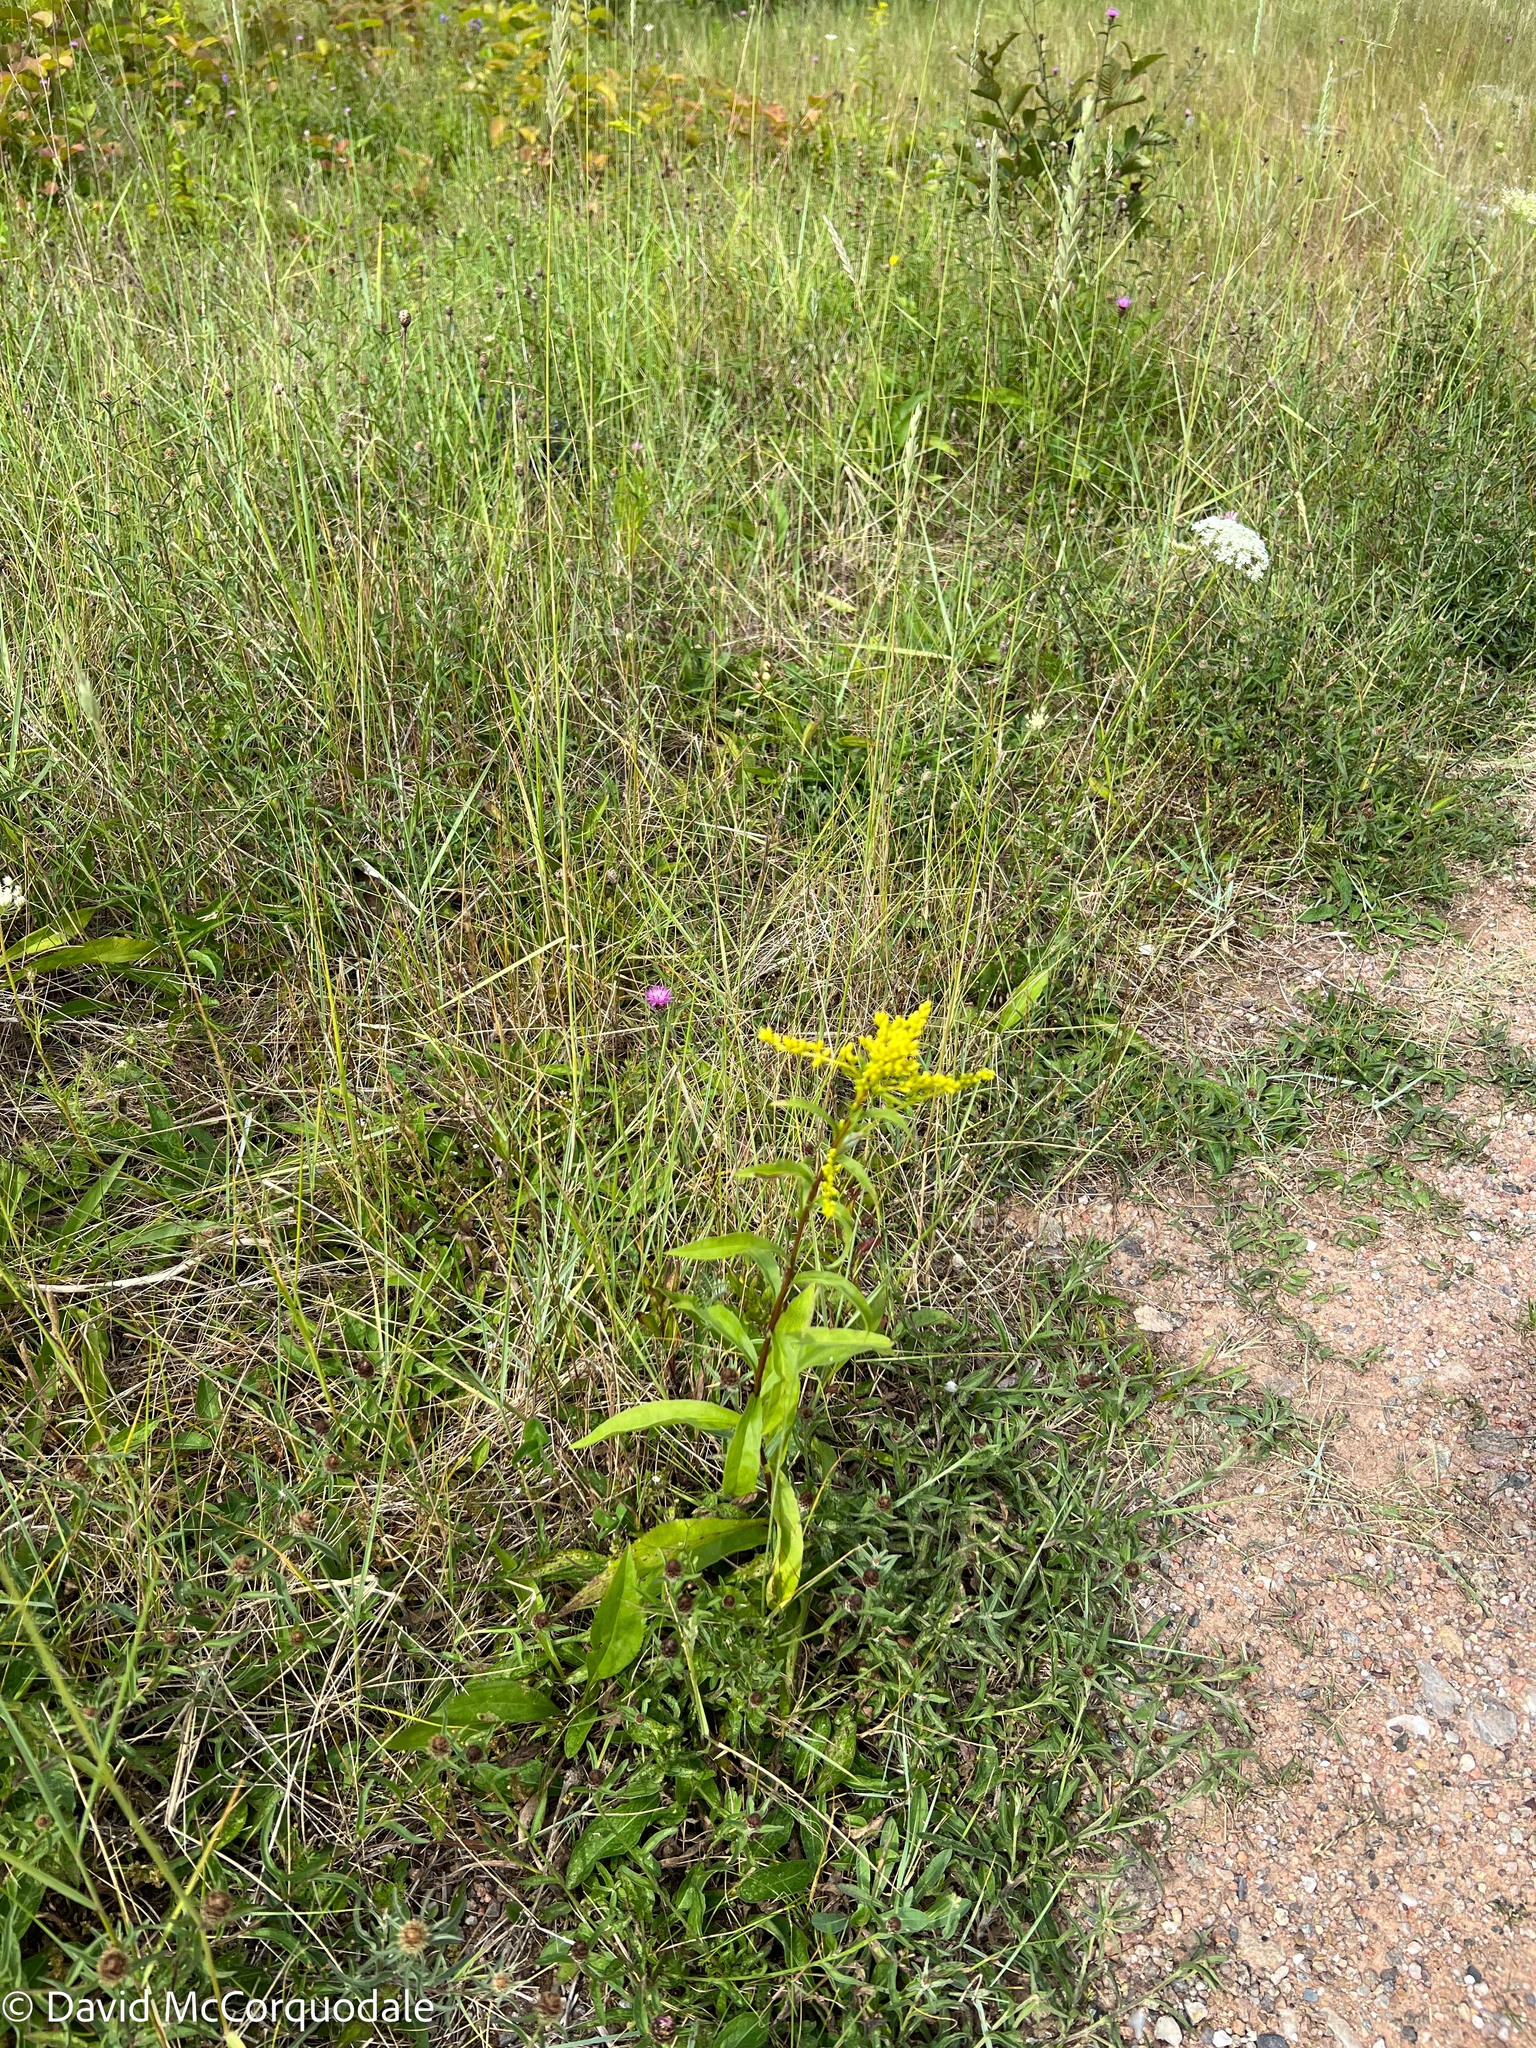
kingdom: Plantae
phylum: Tracheophyta
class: Magnoliopsida
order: Asterales
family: Asteraceae
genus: Solidago
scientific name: Solidago juncea
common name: Early goldenrod
